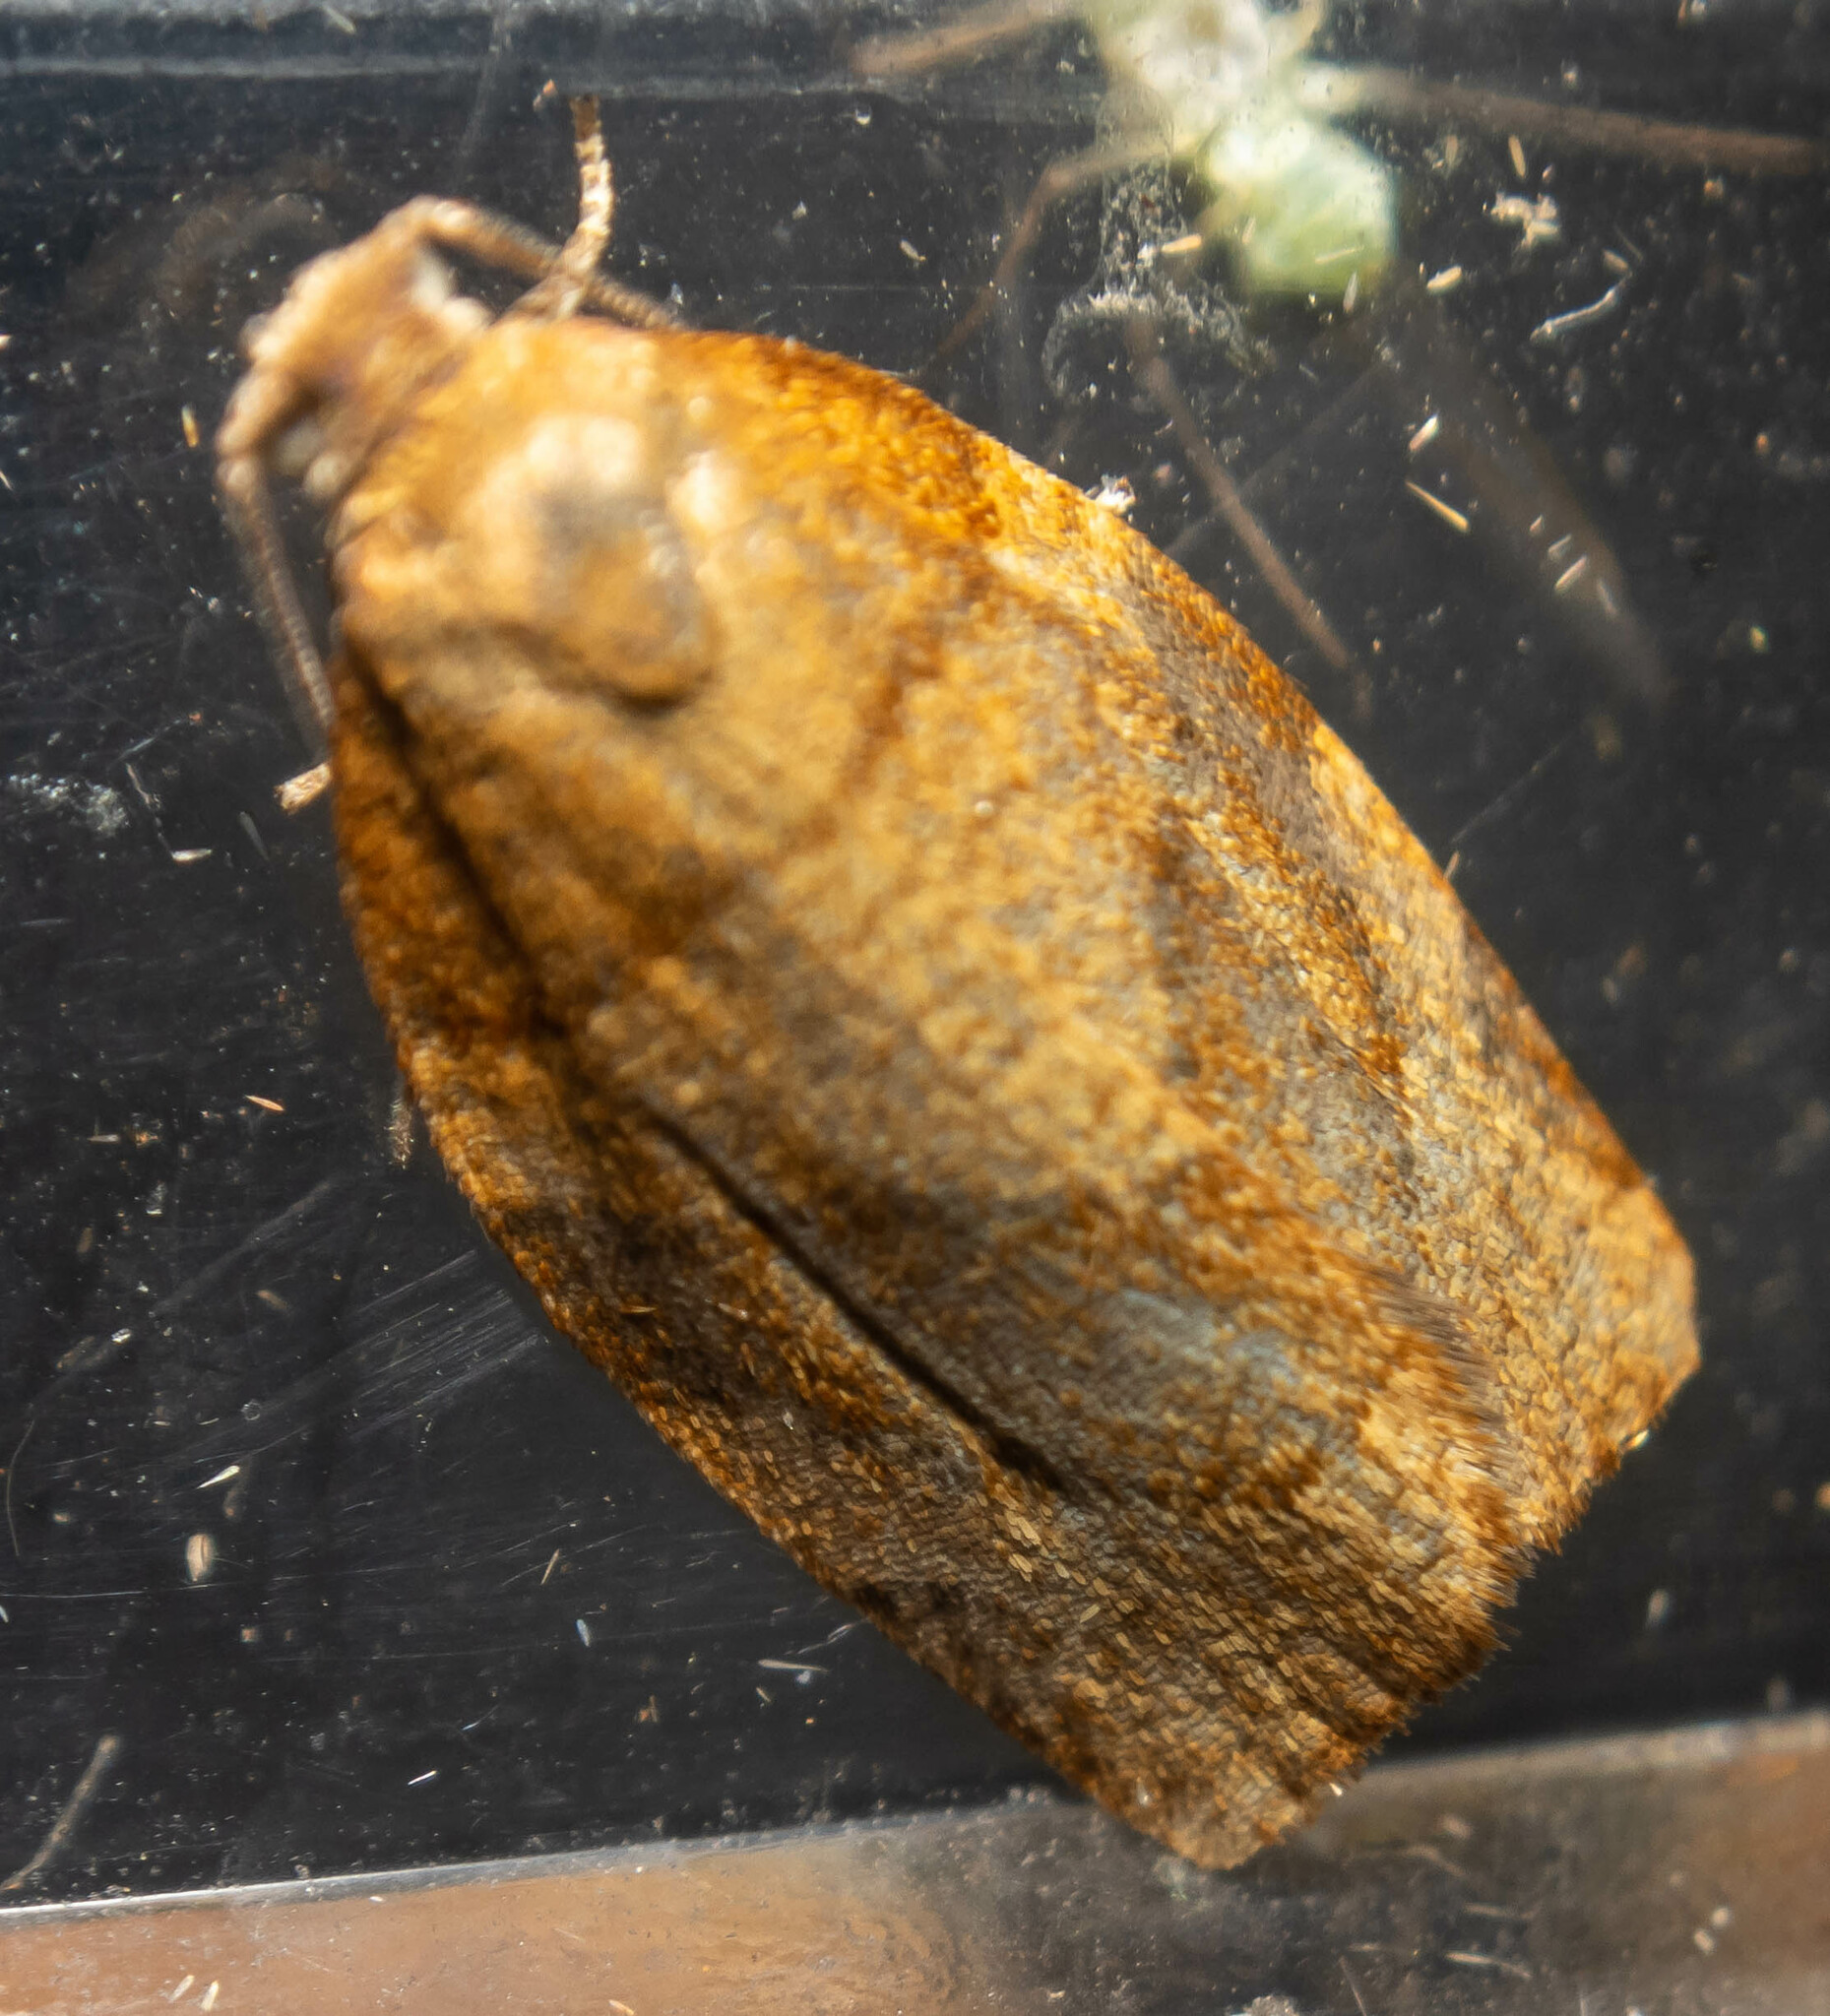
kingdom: Animalia
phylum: Arthropoda
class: Insecta
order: Lepidoptera
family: Tortricidae
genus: Pandemis
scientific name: Pandemis cerasana
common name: Barred fruit-tree tortrix
